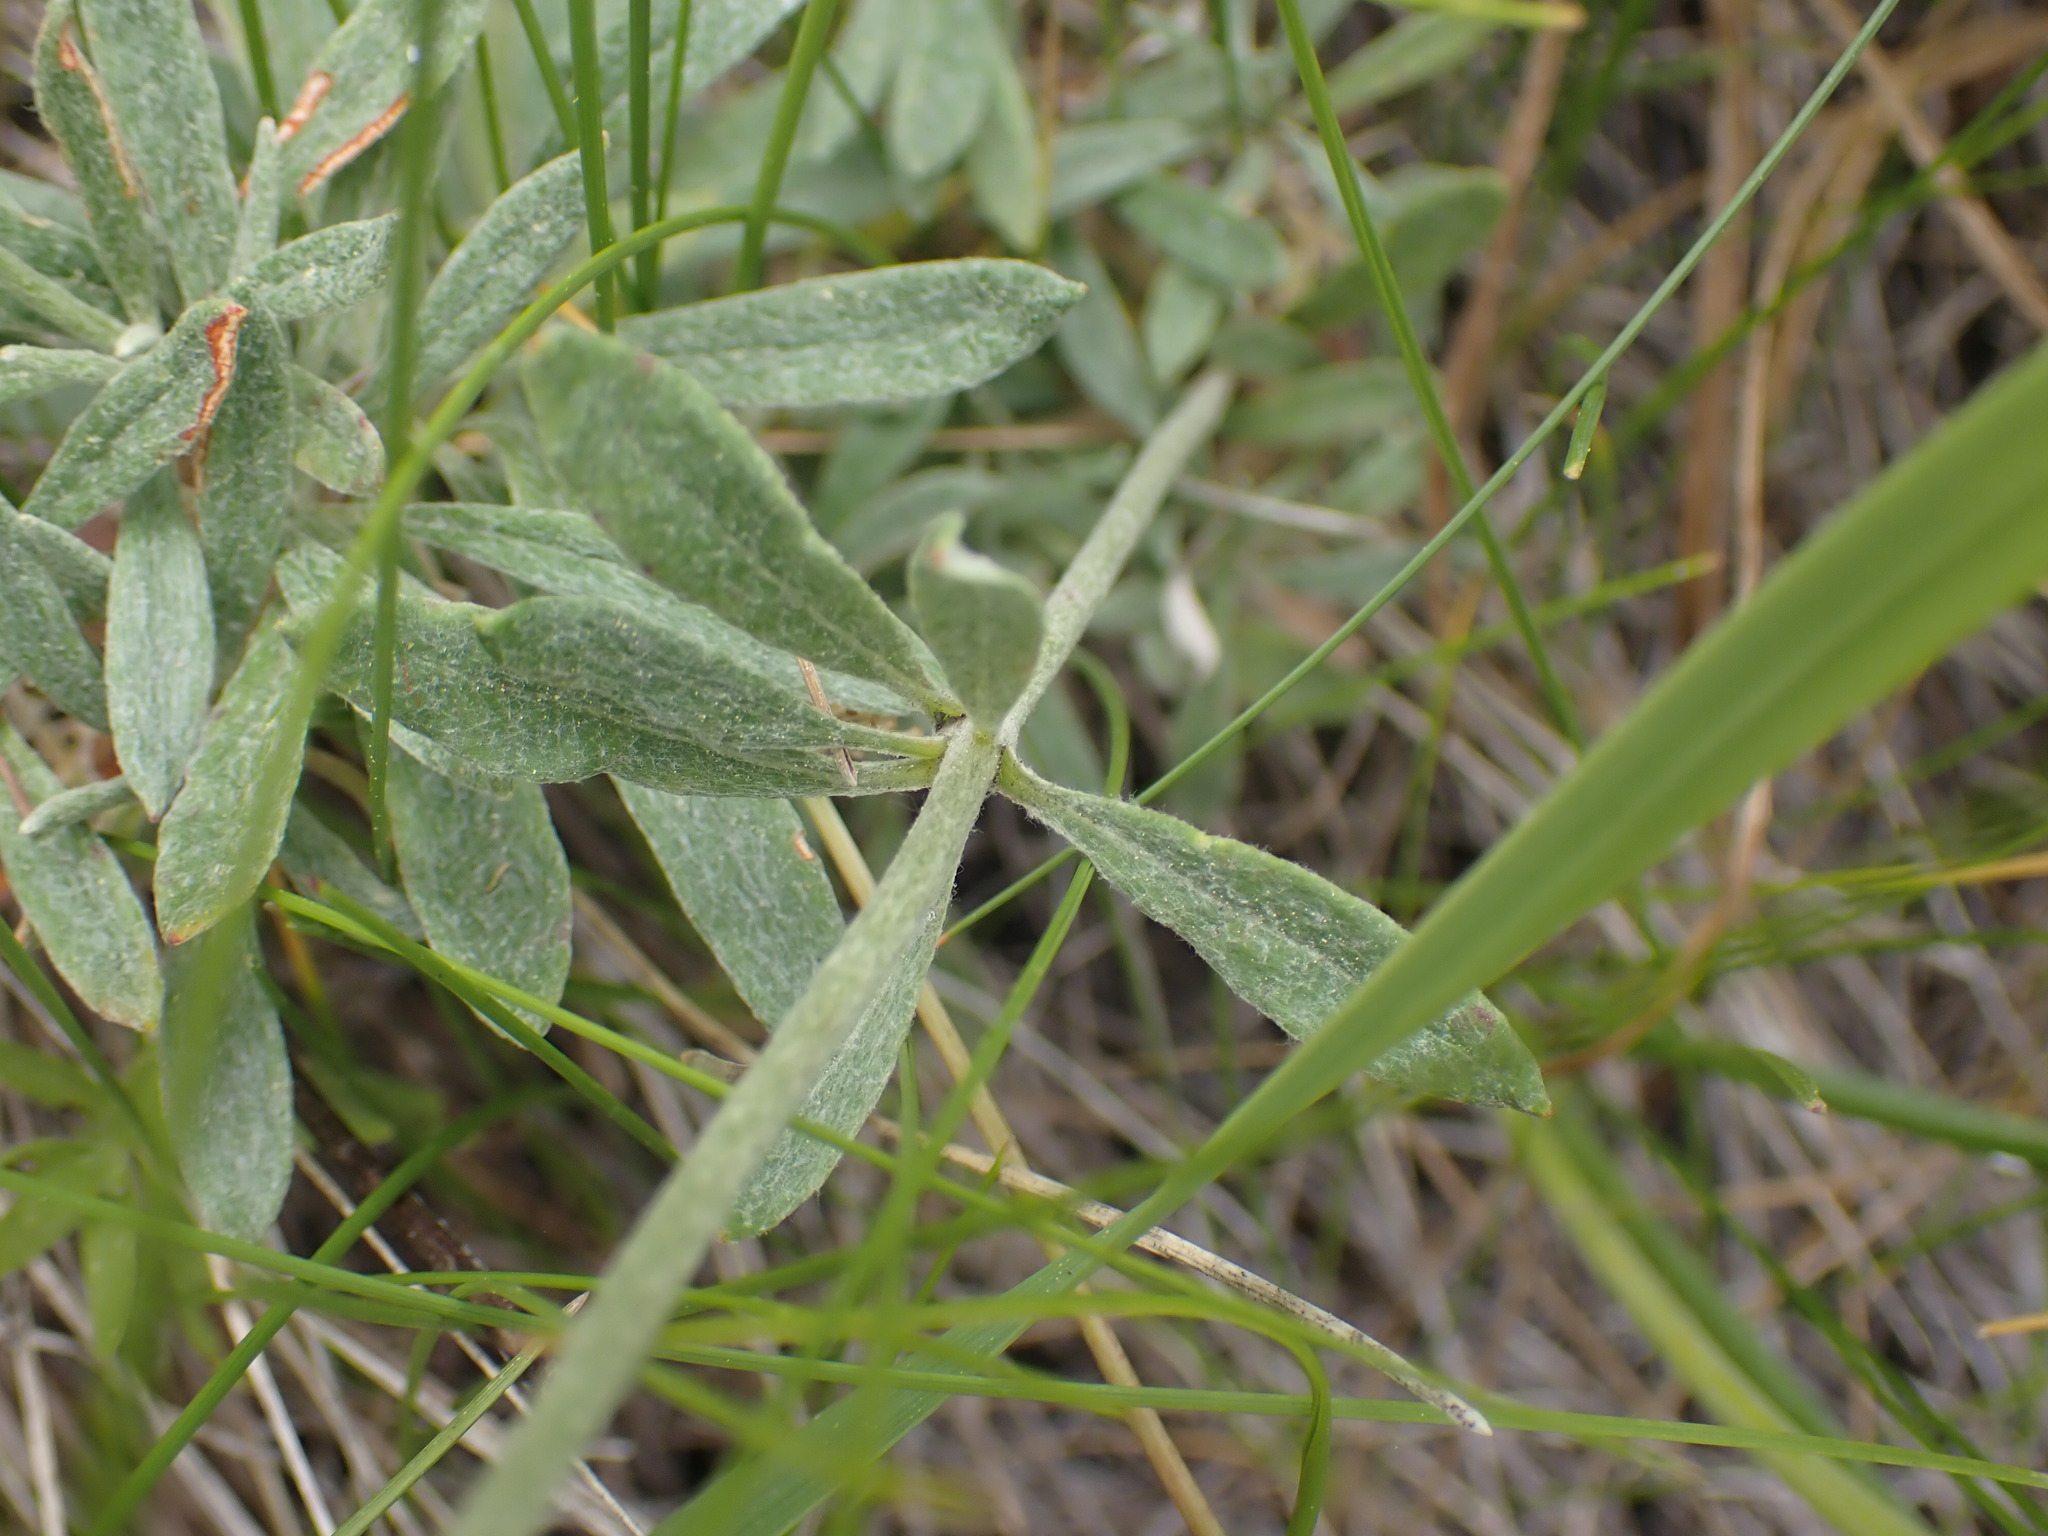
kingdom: Plantae
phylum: Tracheophyta
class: Magnoliopsida
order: Caryophyllales
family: Polygonaceae
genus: Eriogonum
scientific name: Eriogonum heracleoides
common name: Wyeth's buckwheat
